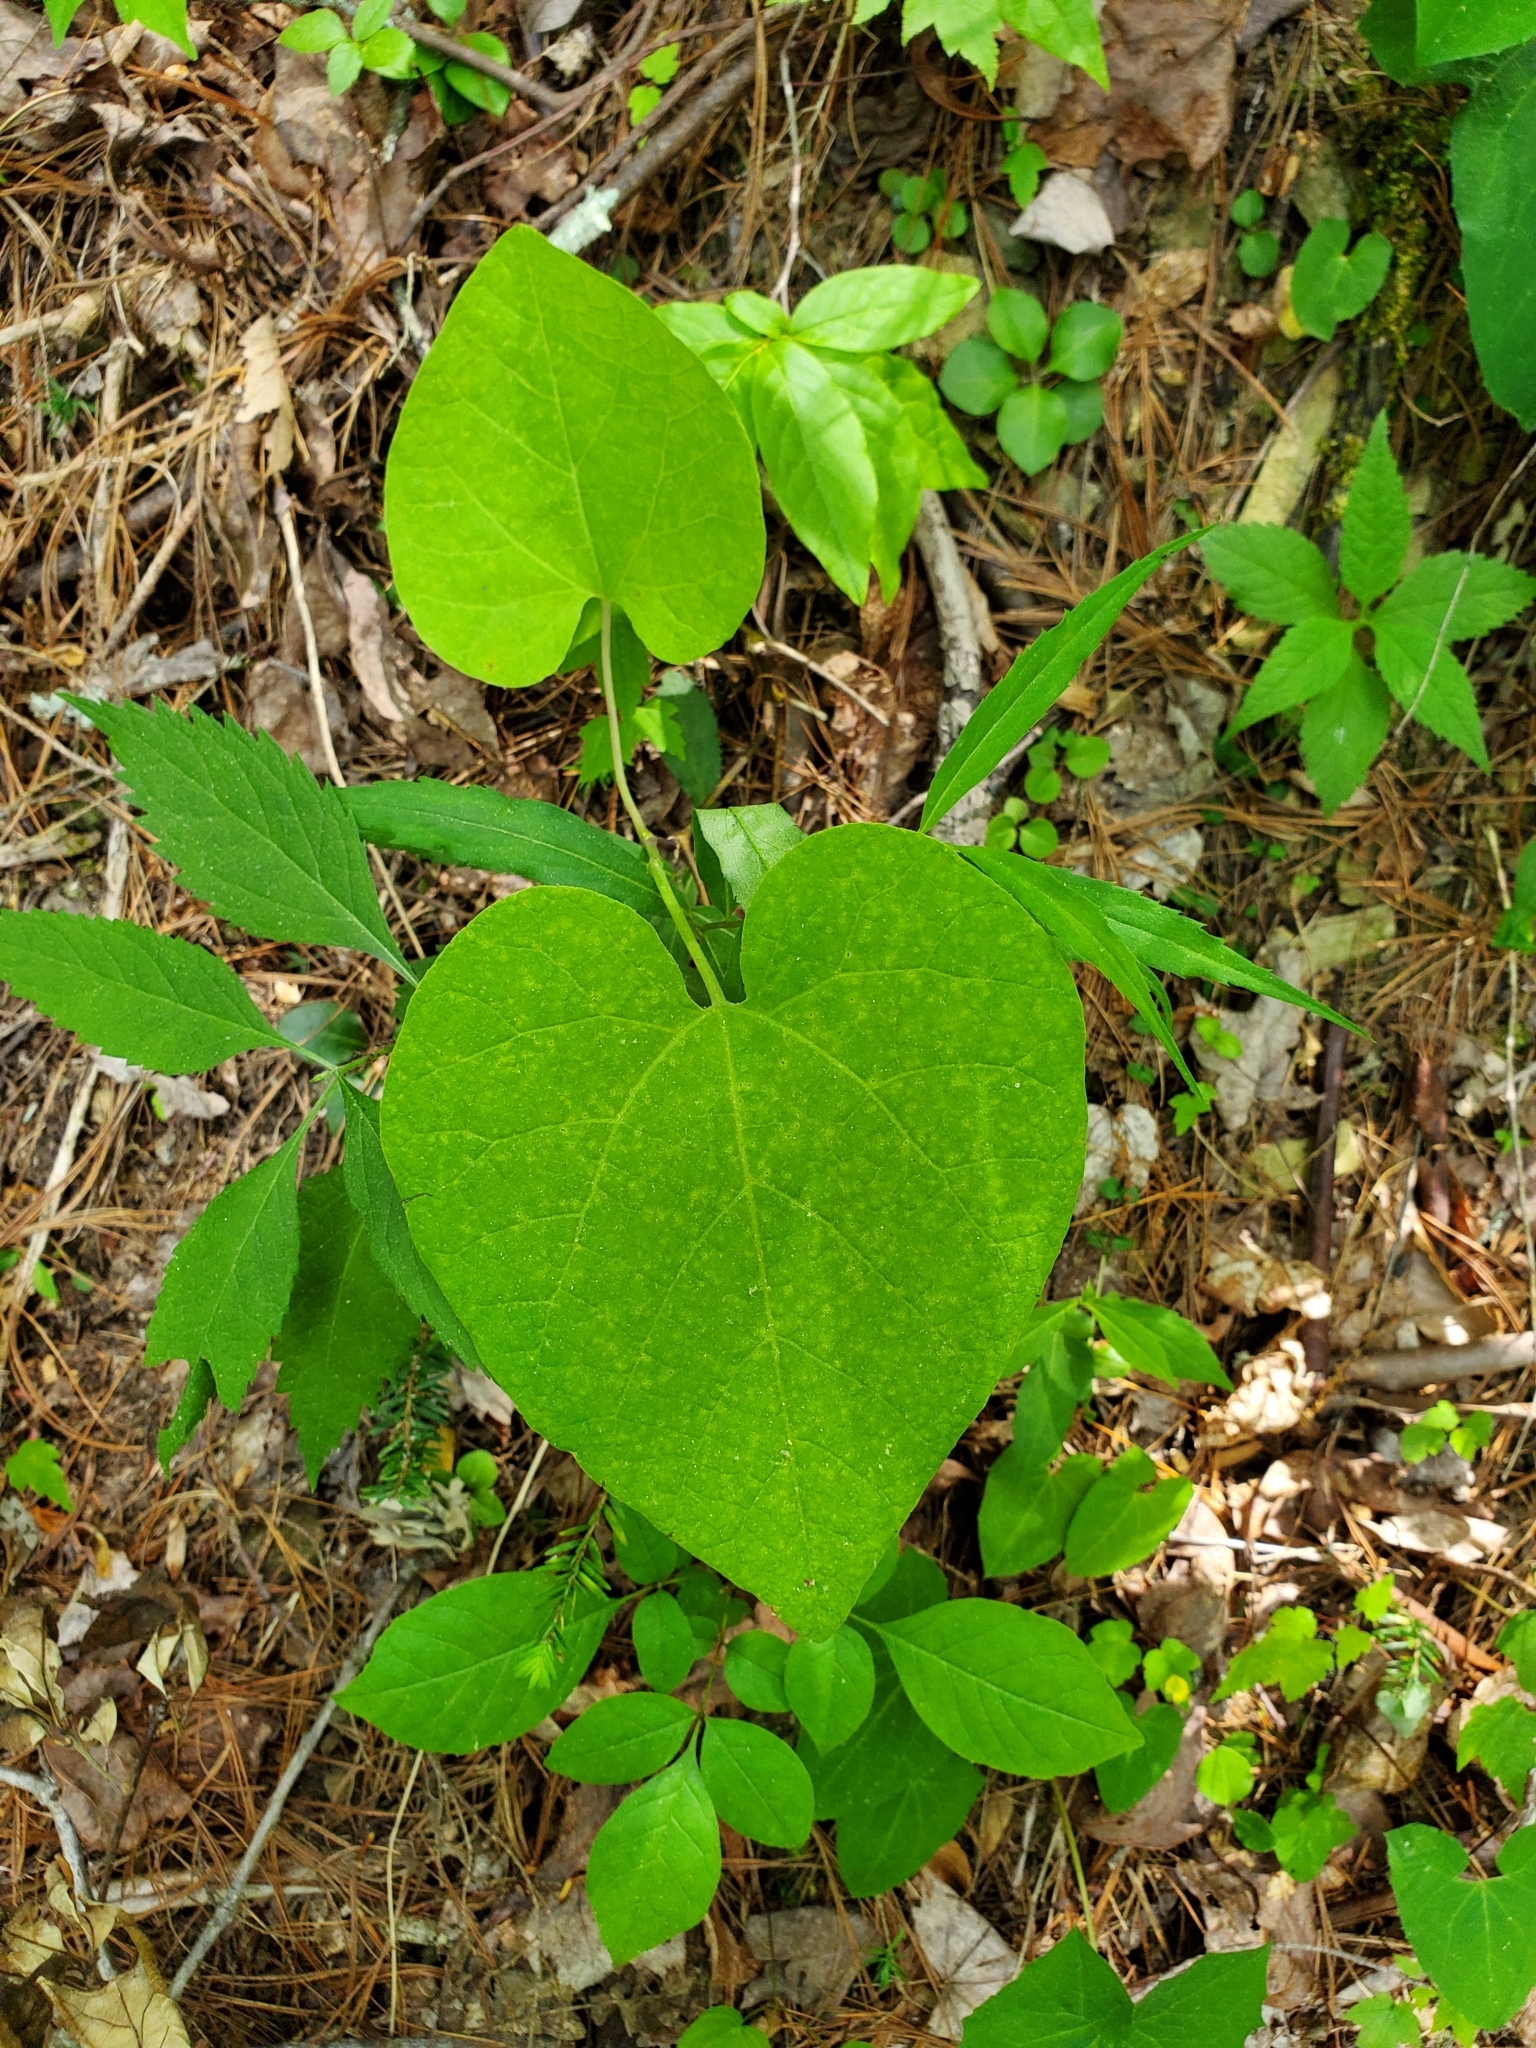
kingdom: Plantae
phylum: Tracheophyta
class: Magnoliopsida
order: Piperales
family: Aristolochiaceae
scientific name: Aristolochiaceae
